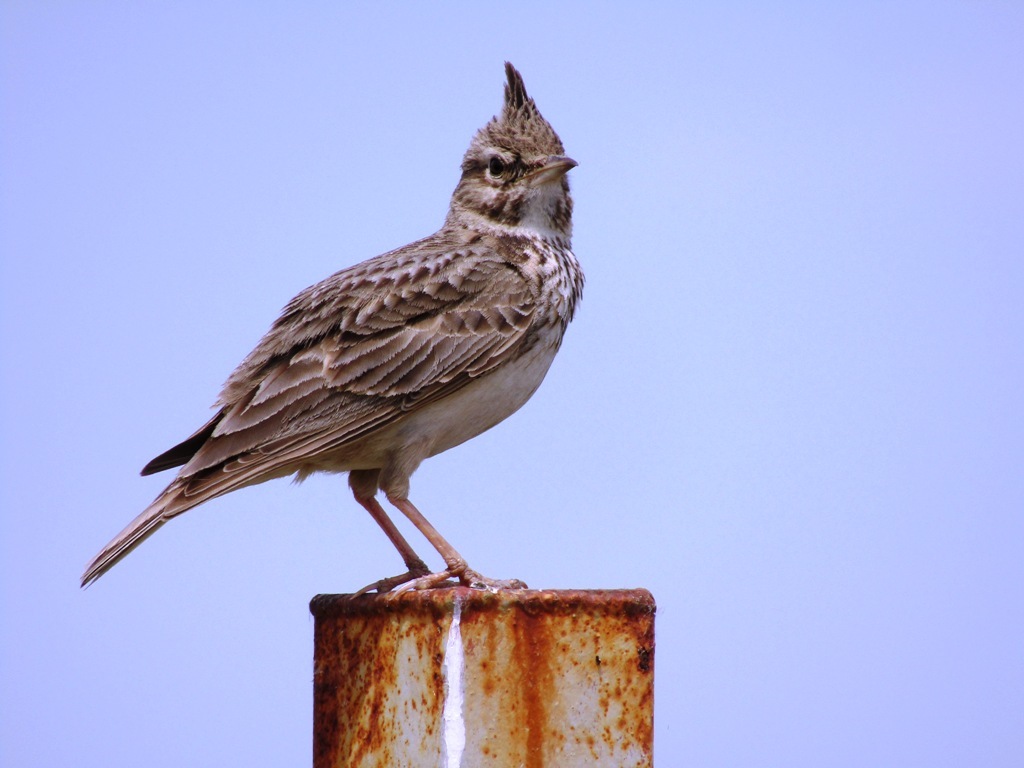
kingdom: Animalia
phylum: Chordata
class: Aves
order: Passeriformes
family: Alaudidae
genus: Galerida
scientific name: Galerida cristata
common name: Crested lark
